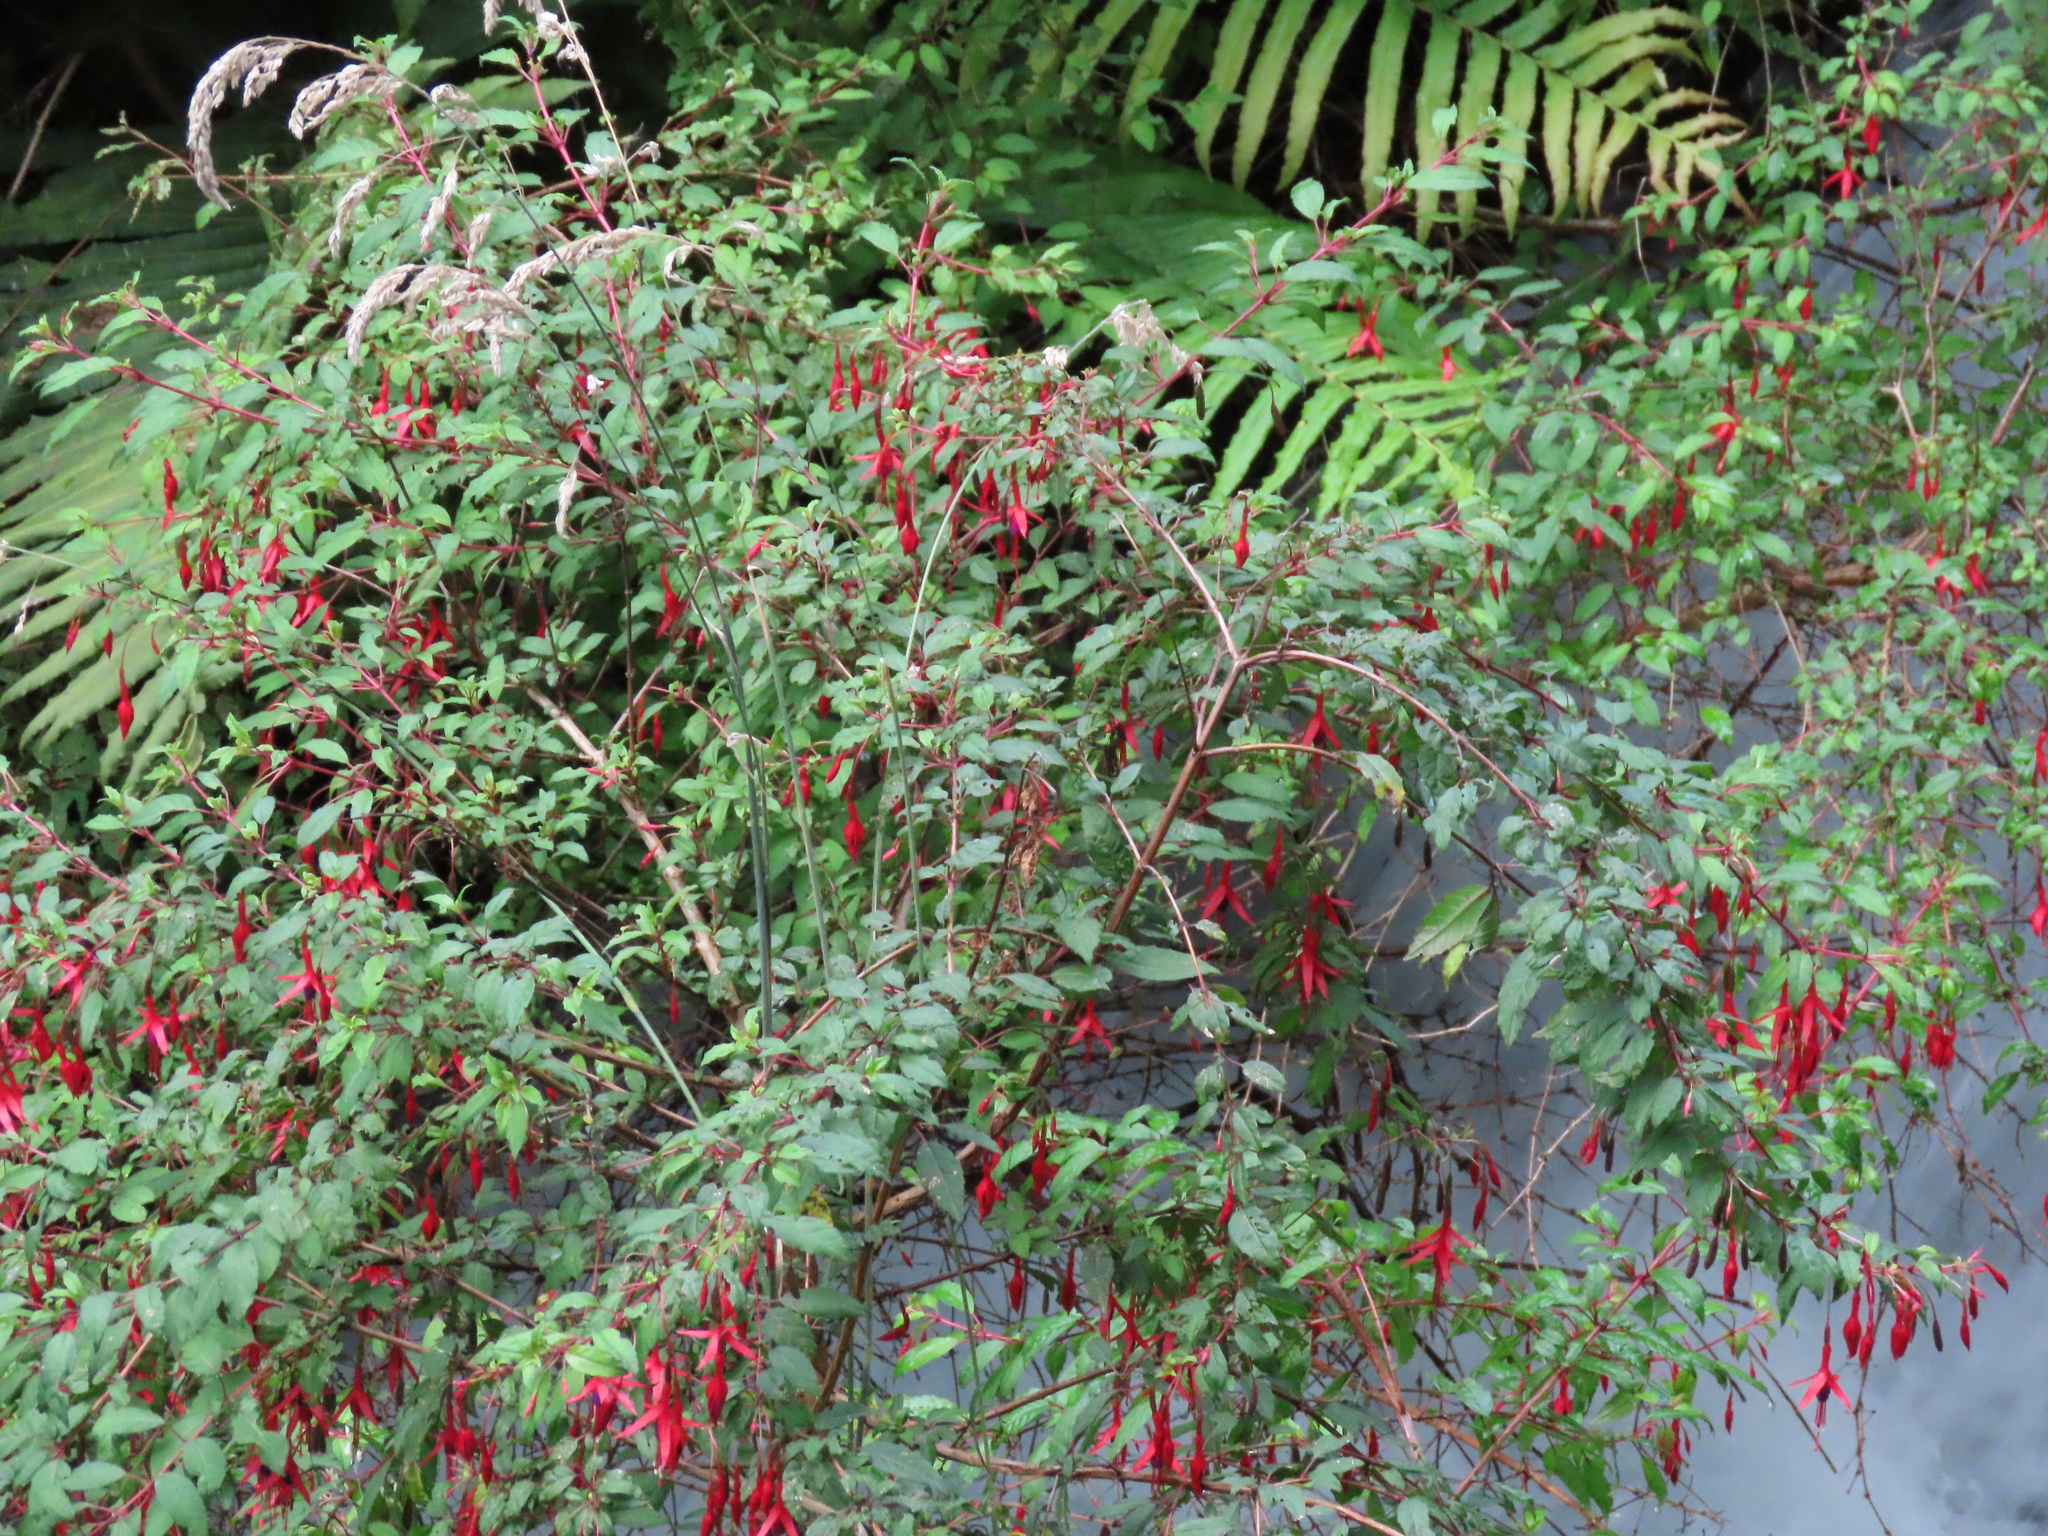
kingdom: Plantae
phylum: Tracheophyta
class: Magnoliopsida
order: Myrtales
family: Onagraceae
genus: Fuchsia
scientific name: Fuchsia magellanica
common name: Hardy fuchsia
